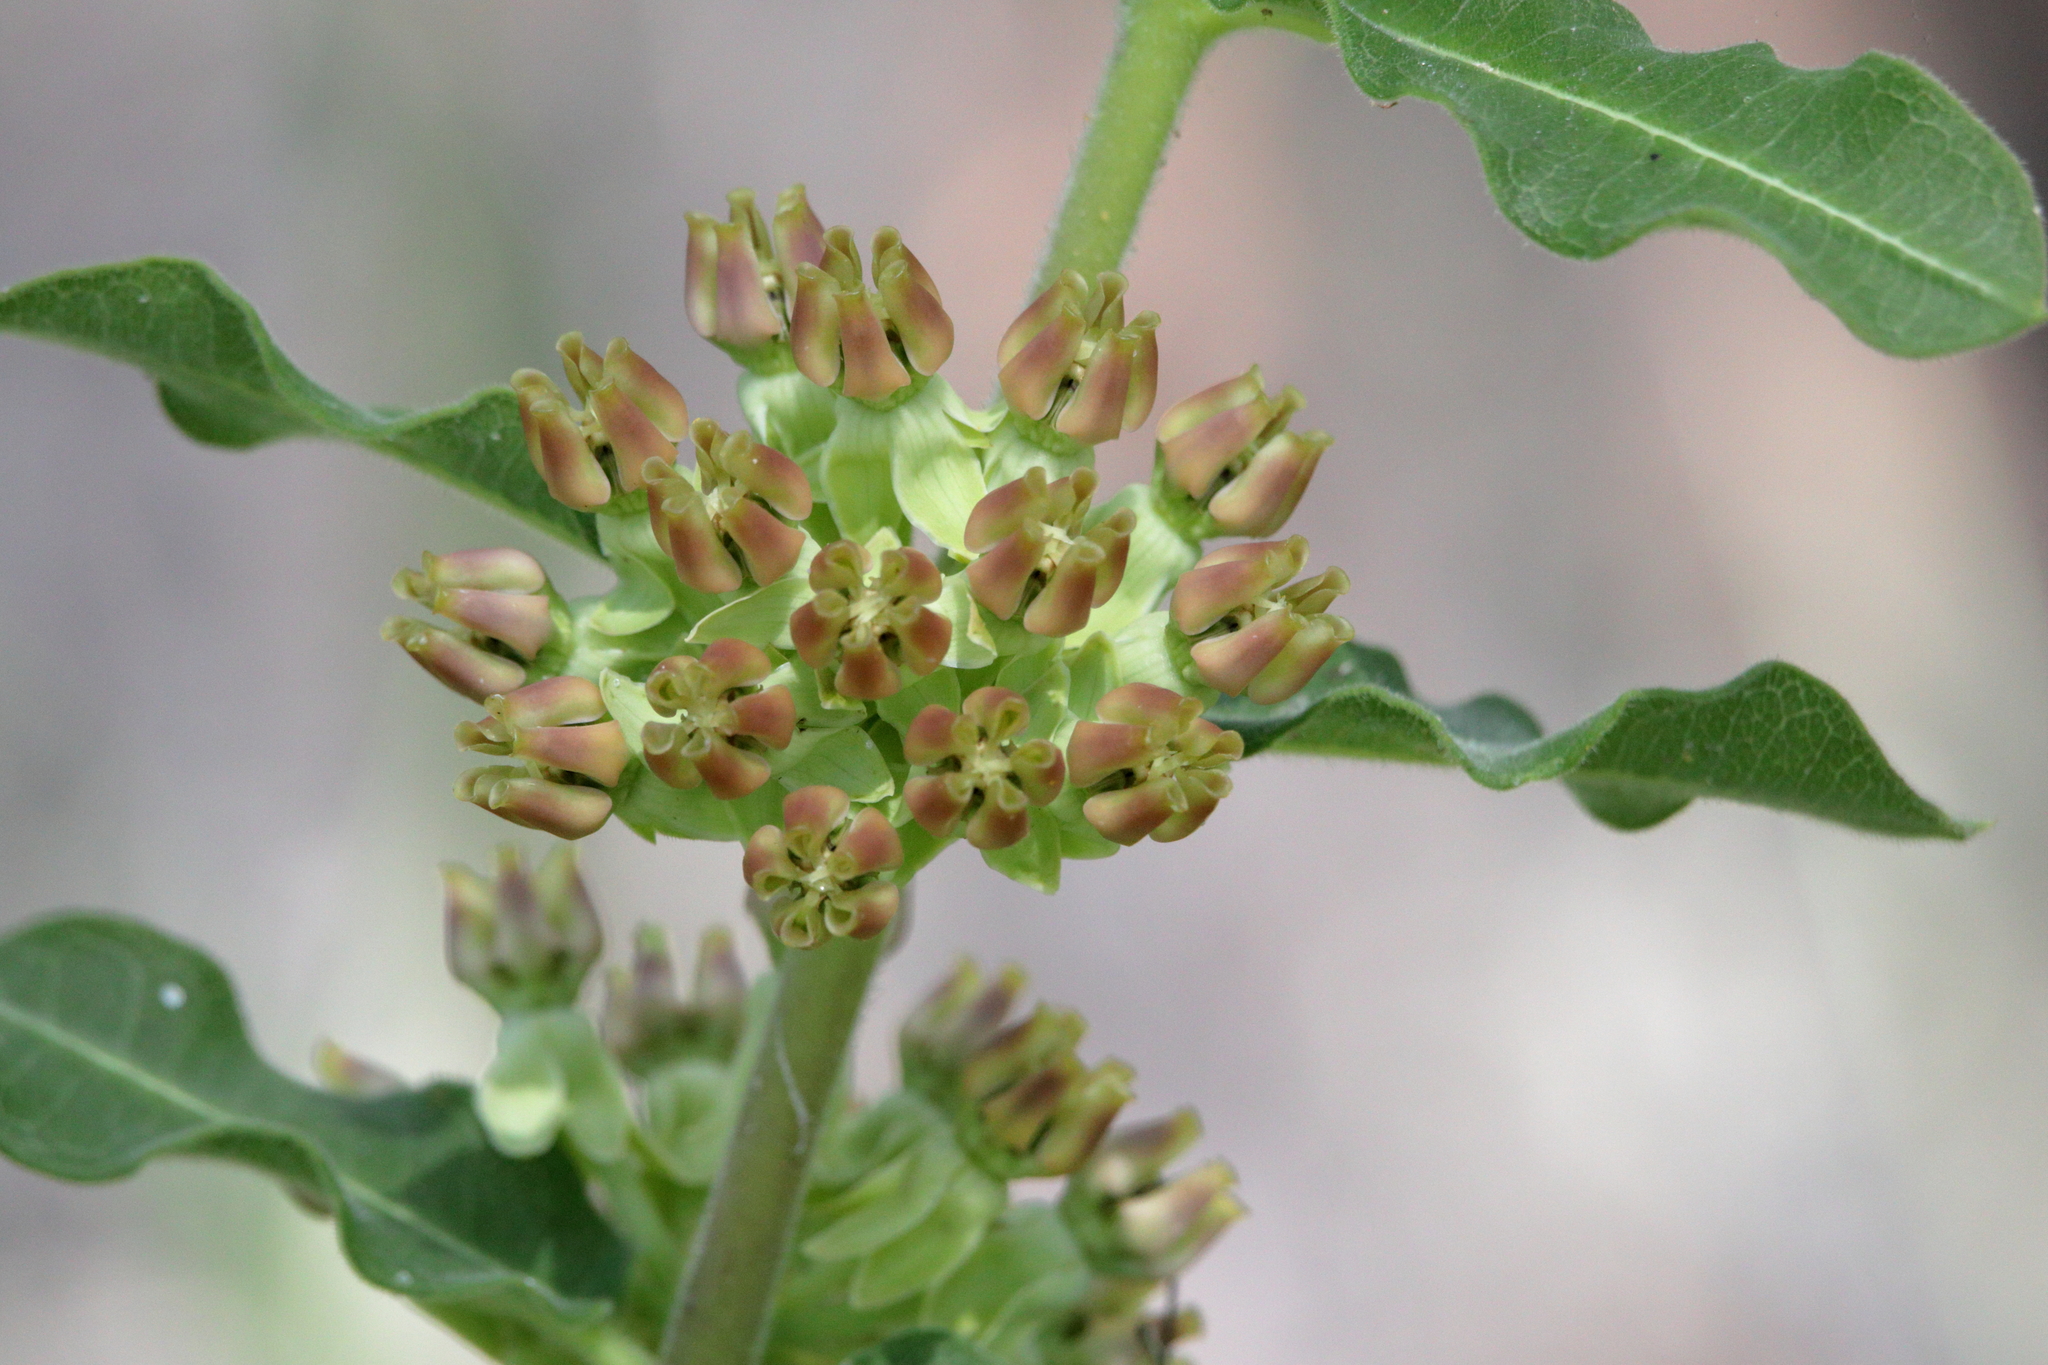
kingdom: Plantae
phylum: Tracheophyta
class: Magnoliopsida
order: Gentianales
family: Apocynaceae
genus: Asclepias
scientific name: Asclepias obovata
